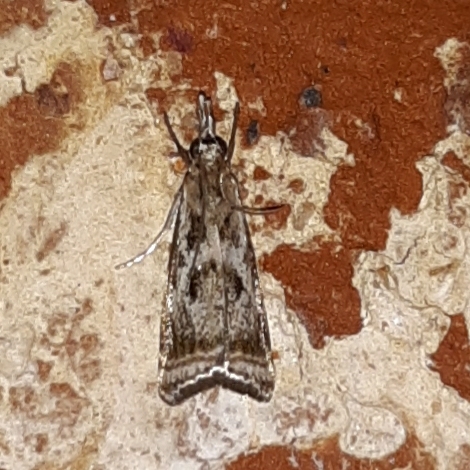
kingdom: Animalia
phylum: Arthropoda
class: Insecta
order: Lepidoptera
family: Crambidae
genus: Microcrambus
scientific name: Microcrambus elegans
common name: Elegant grass-veneer
